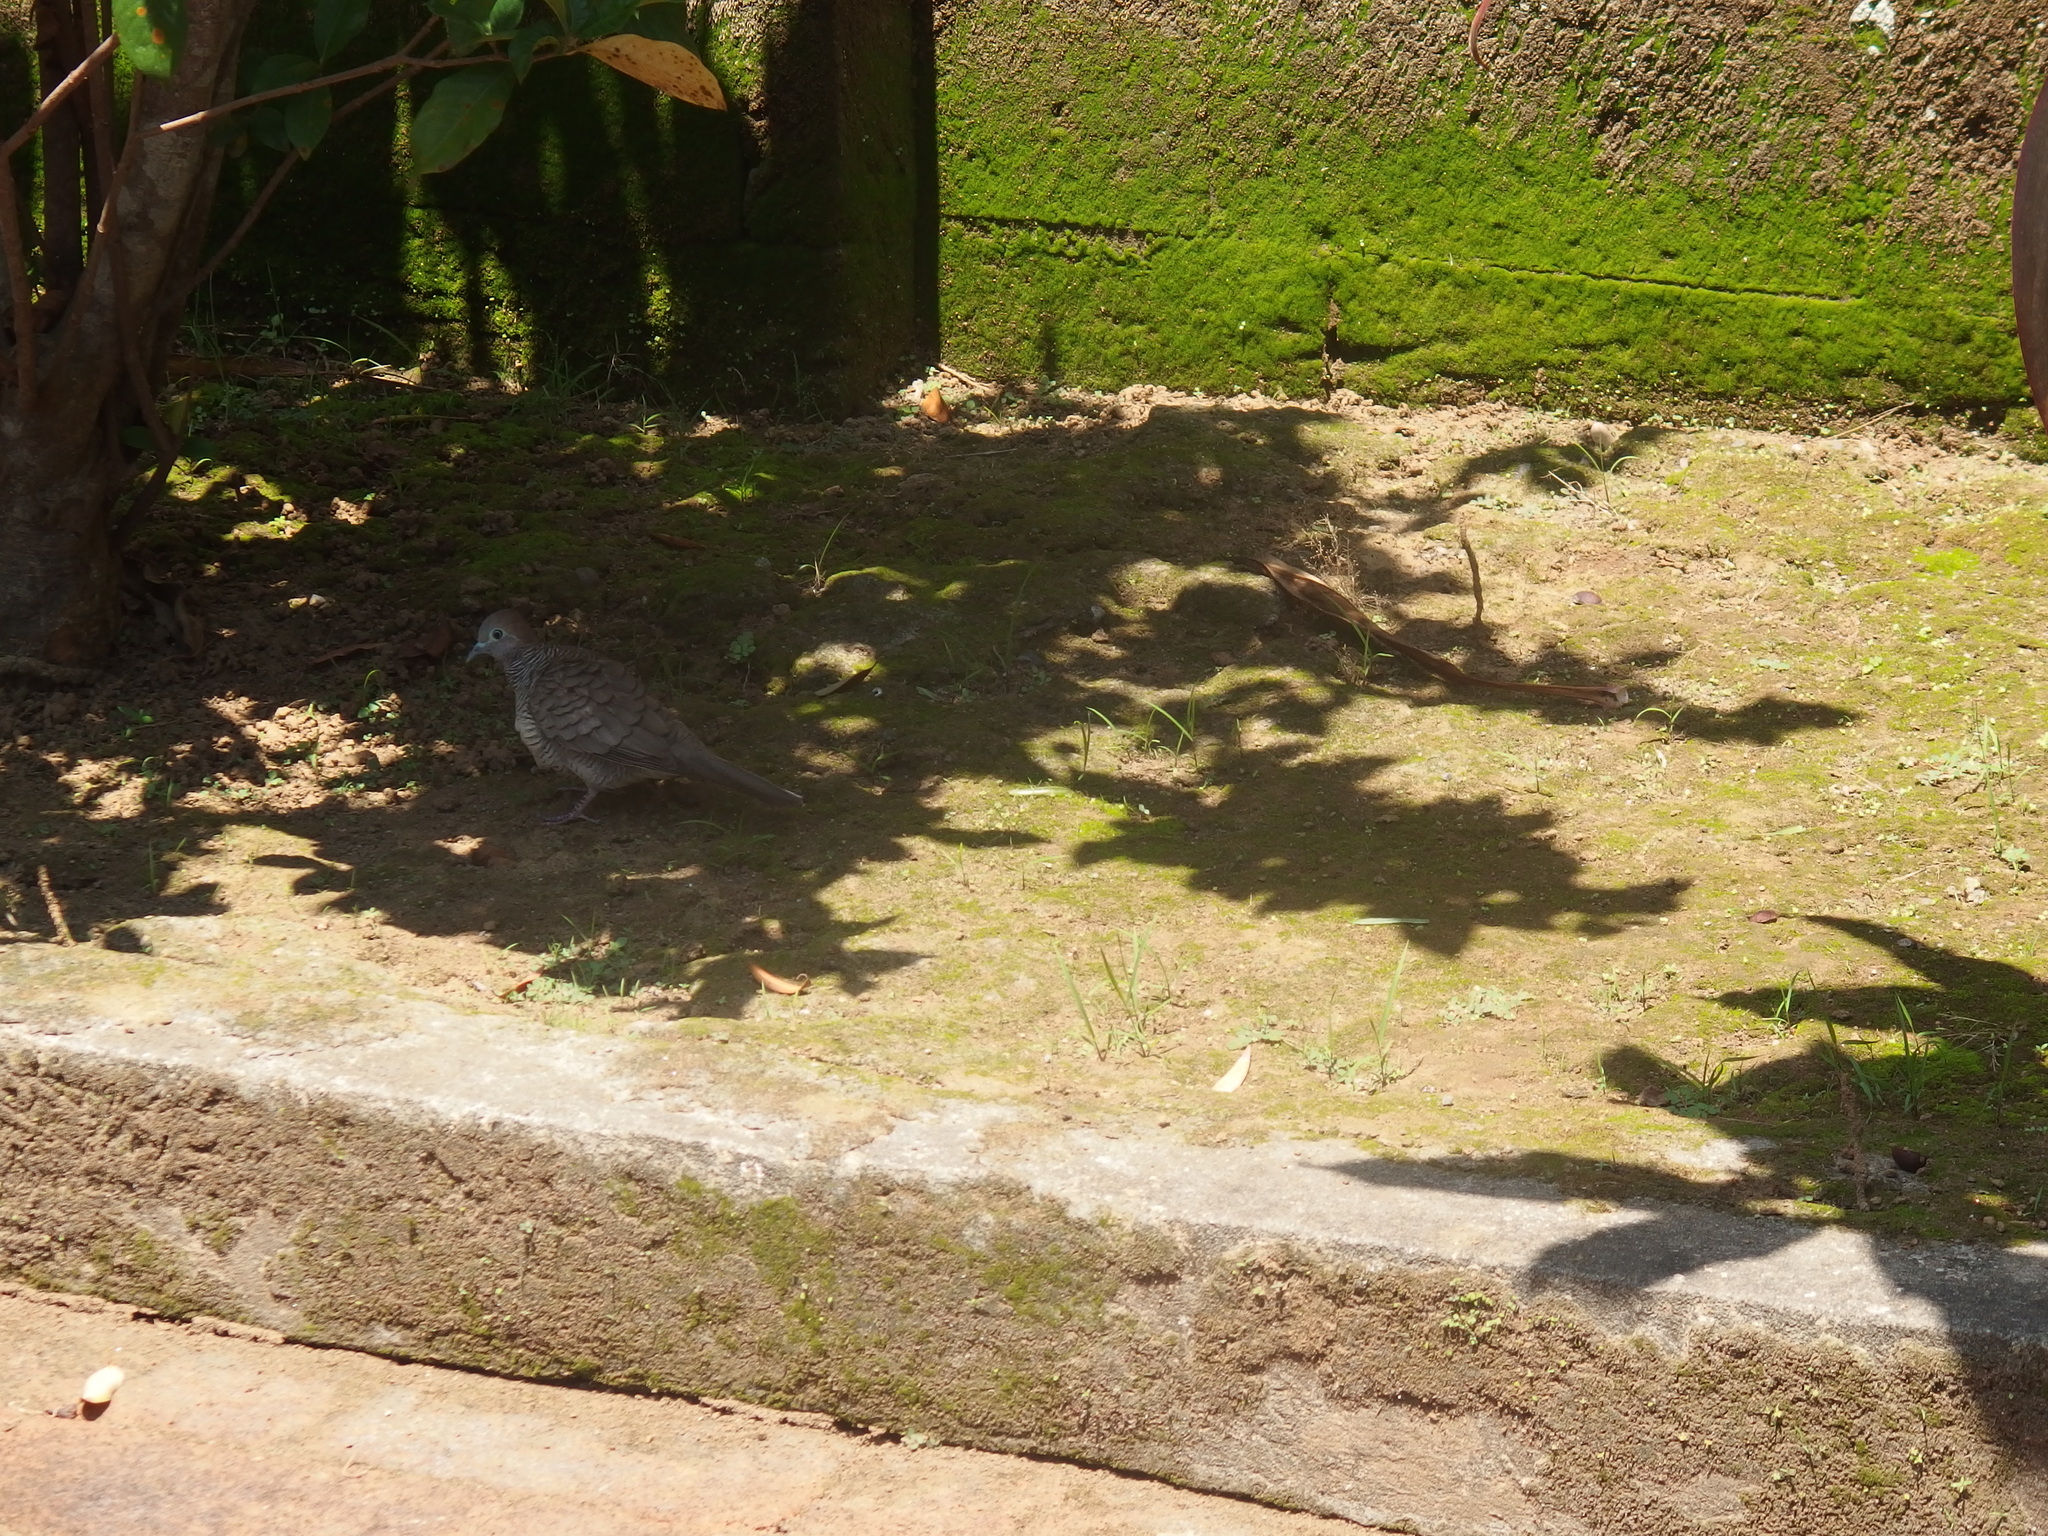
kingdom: Animalia
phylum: Chordata
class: Aves
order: Columbiformes
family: Columbidae
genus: Geopelia
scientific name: Geopelia striata
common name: Zebra dove
